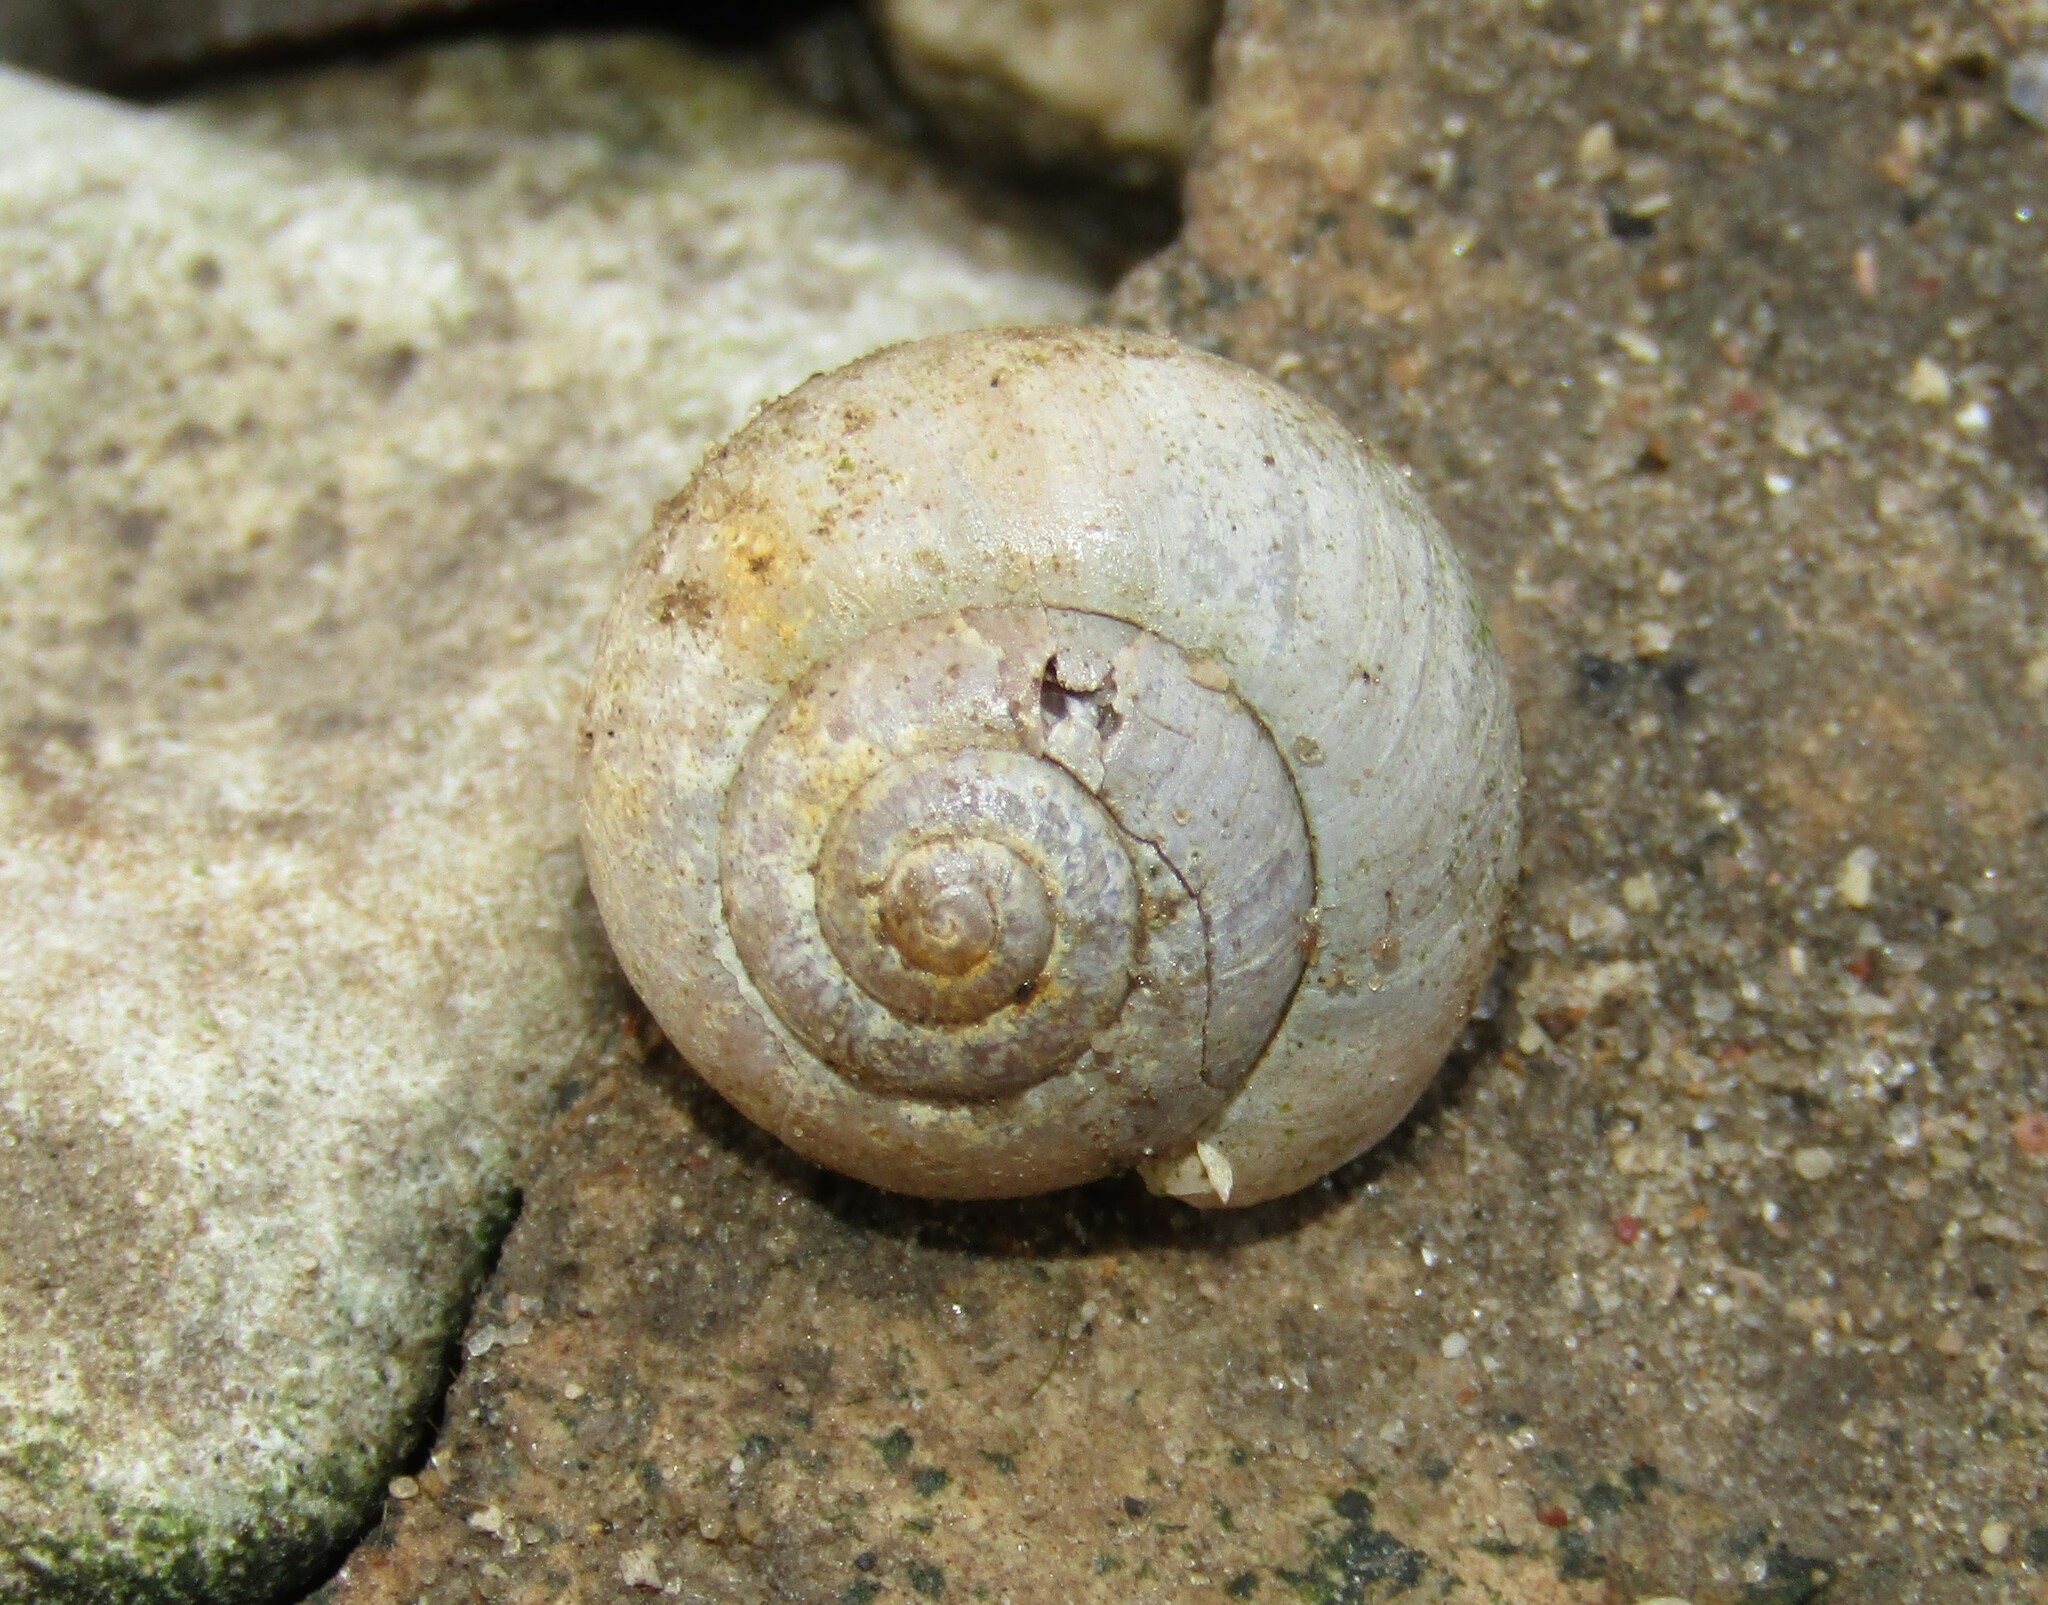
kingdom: Animalia
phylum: Mollusca
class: Gastropoda
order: Stylommatophora
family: Camaenidae
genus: Fruticicola
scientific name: Fruticicola fruticum
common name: Bush snail
